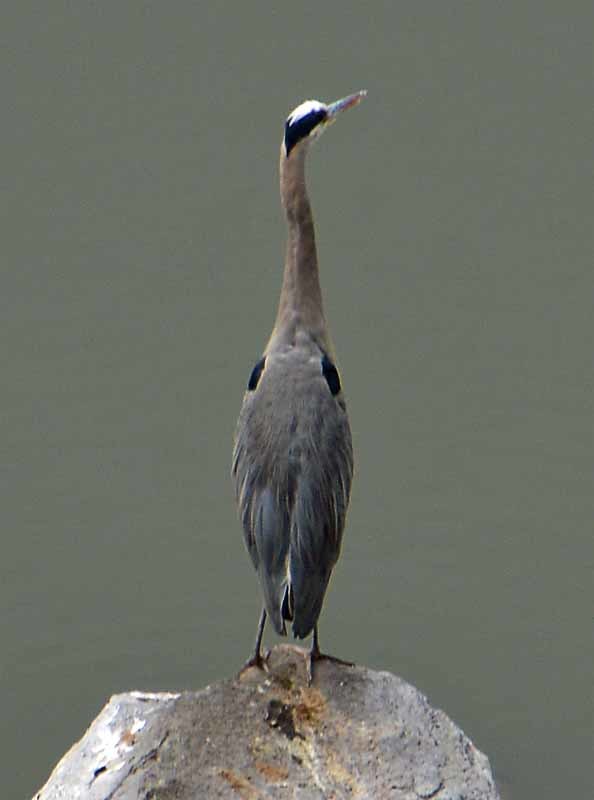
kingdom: Animalia
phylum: Chordata
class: Aves
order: Pelecaniformes
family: Ardeidae
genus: Ardea
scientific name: Ardea herodias
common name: Great blue heron
